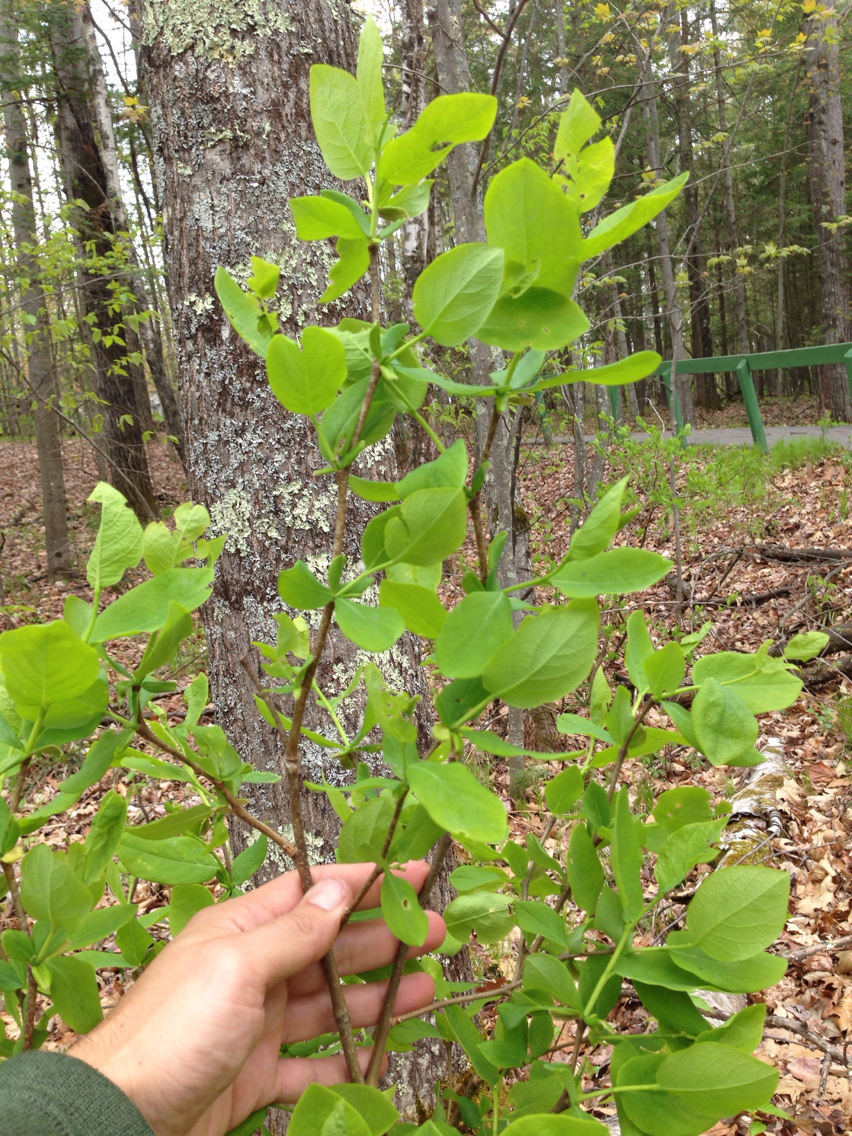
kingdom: Plantae
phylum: Tracheophyta
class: Magnoliopsida
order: Malvales
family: Thymelaeaceae
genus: Dirca
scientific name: Dirca palustris
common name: Leatherwood
